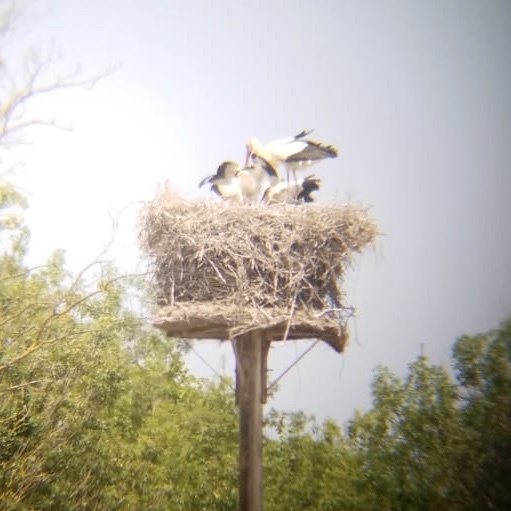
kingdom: Animalia
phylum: Chordata
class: Aves
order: Ciconiiformes
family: Ciconiidae
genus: Ciconia
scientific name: Ciconia ciconia
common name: White stork
